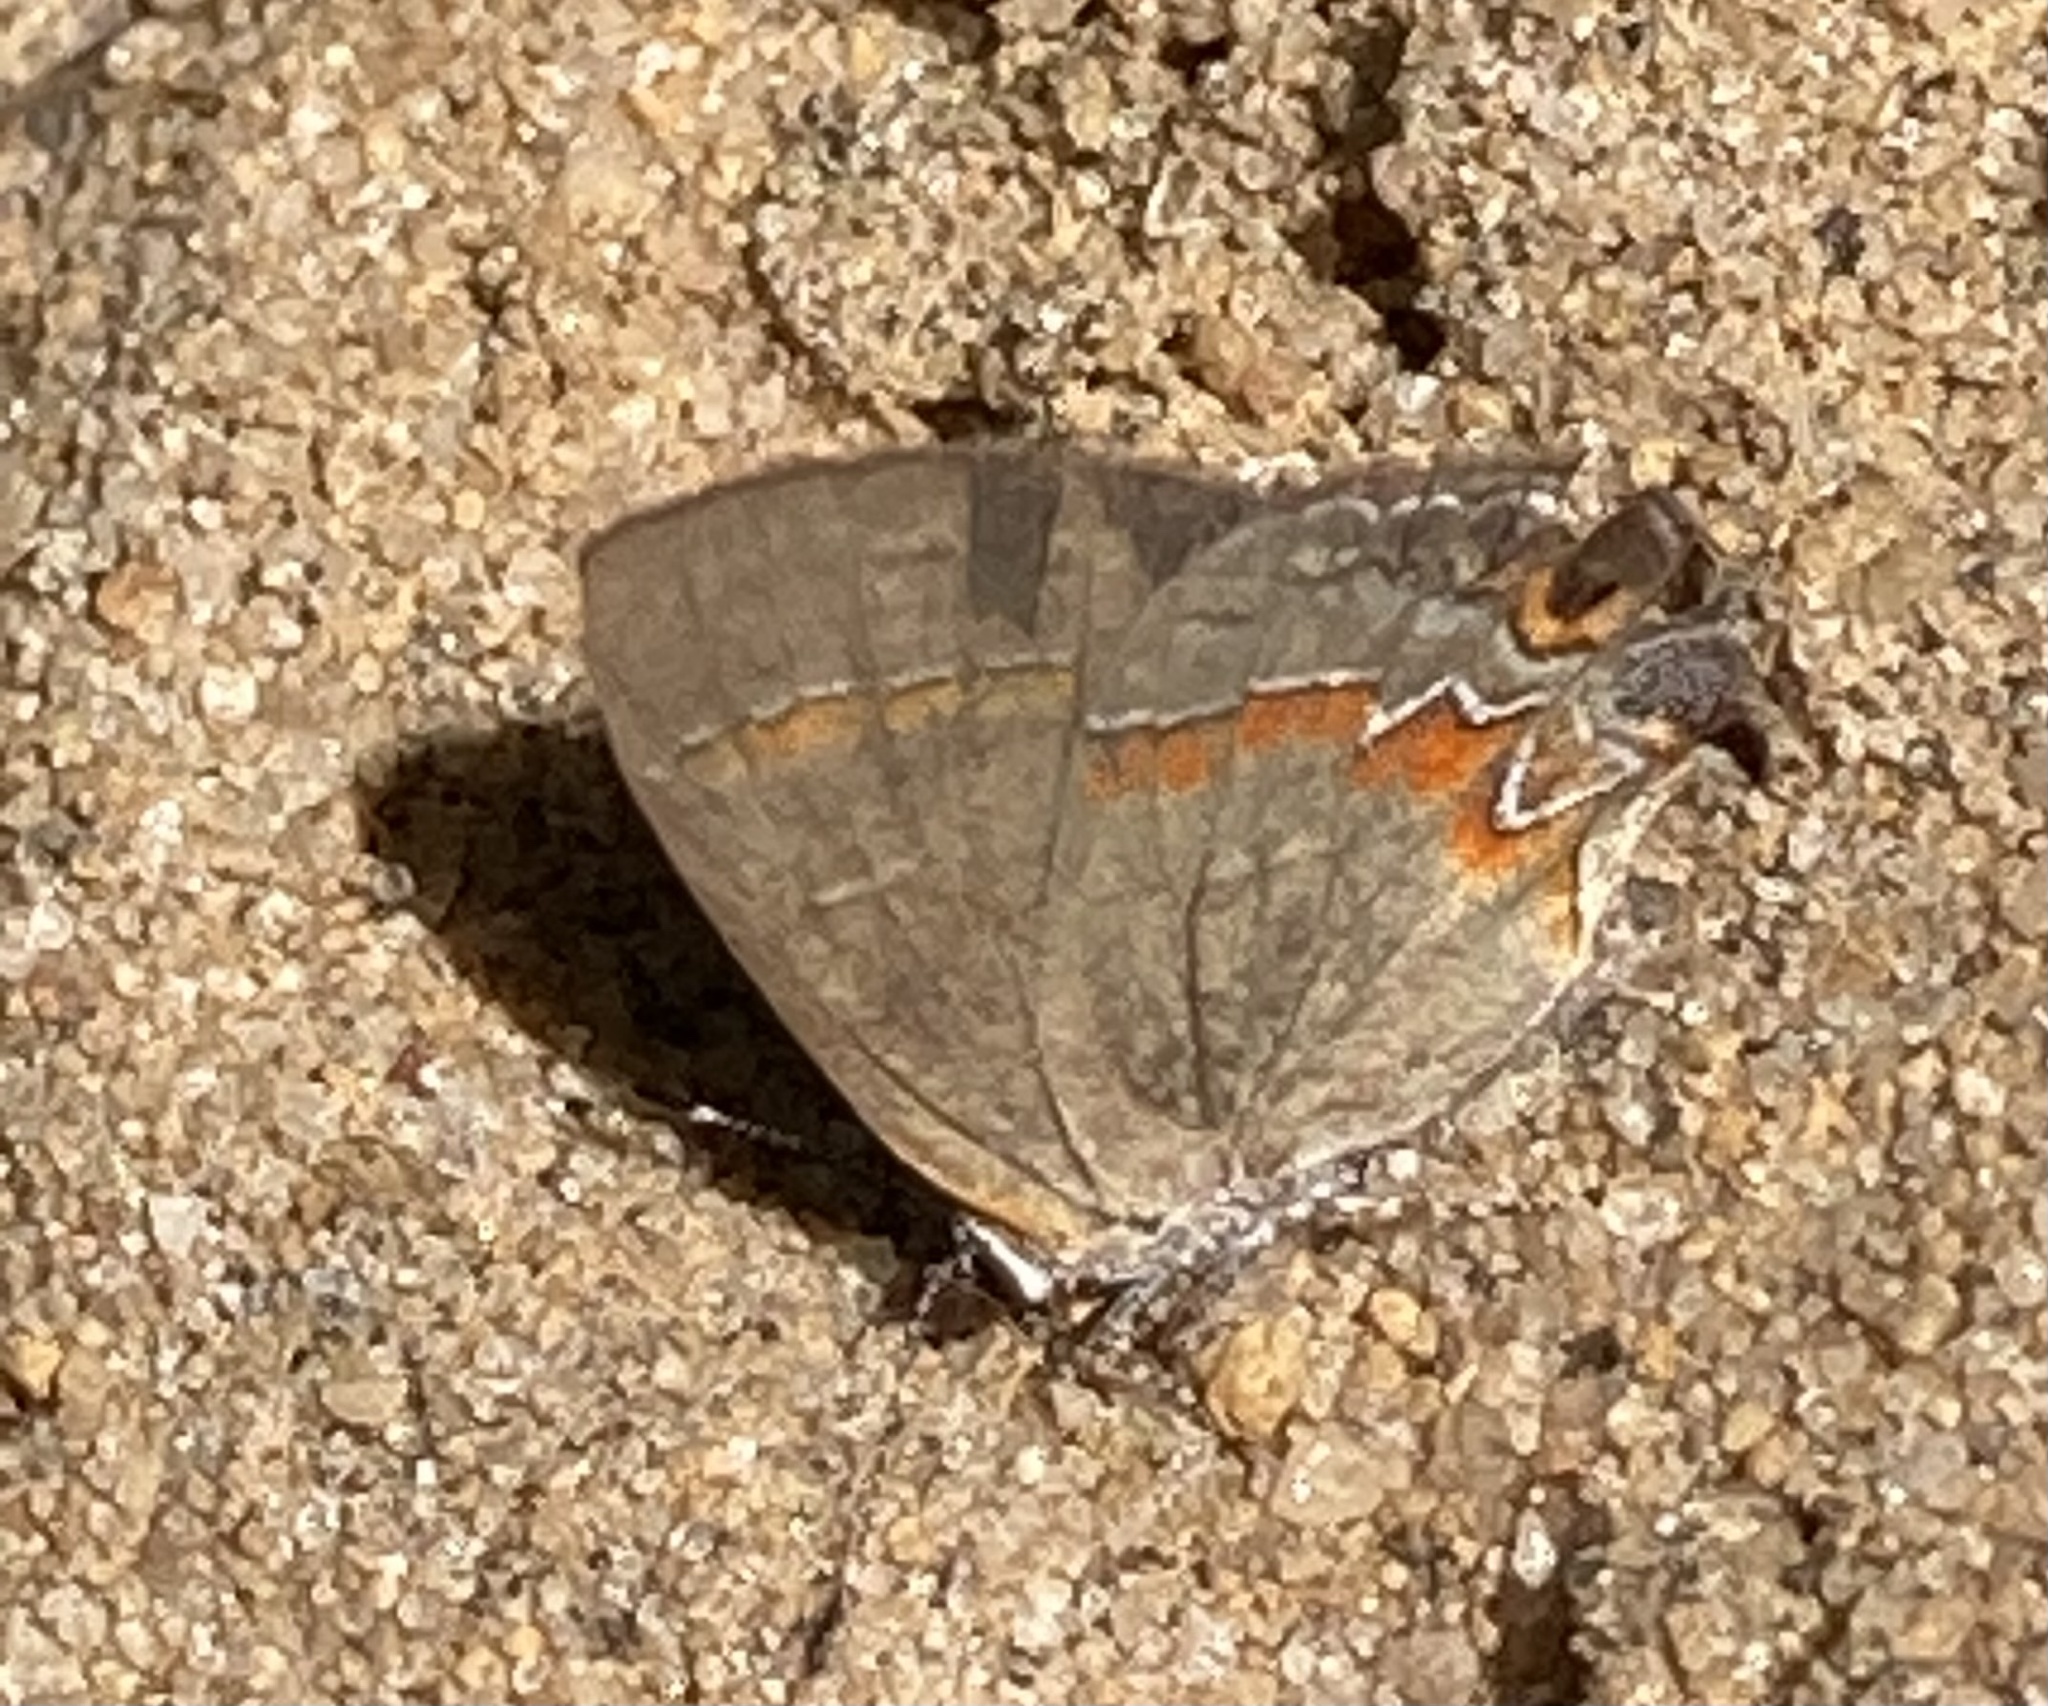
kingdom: Animalia
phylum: Arthropoda
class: Insecta
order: Lepidoptera
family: Lycaenidae
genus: Calycopis
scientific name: Calycopis cecrops
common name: Red-banded hairstreak
